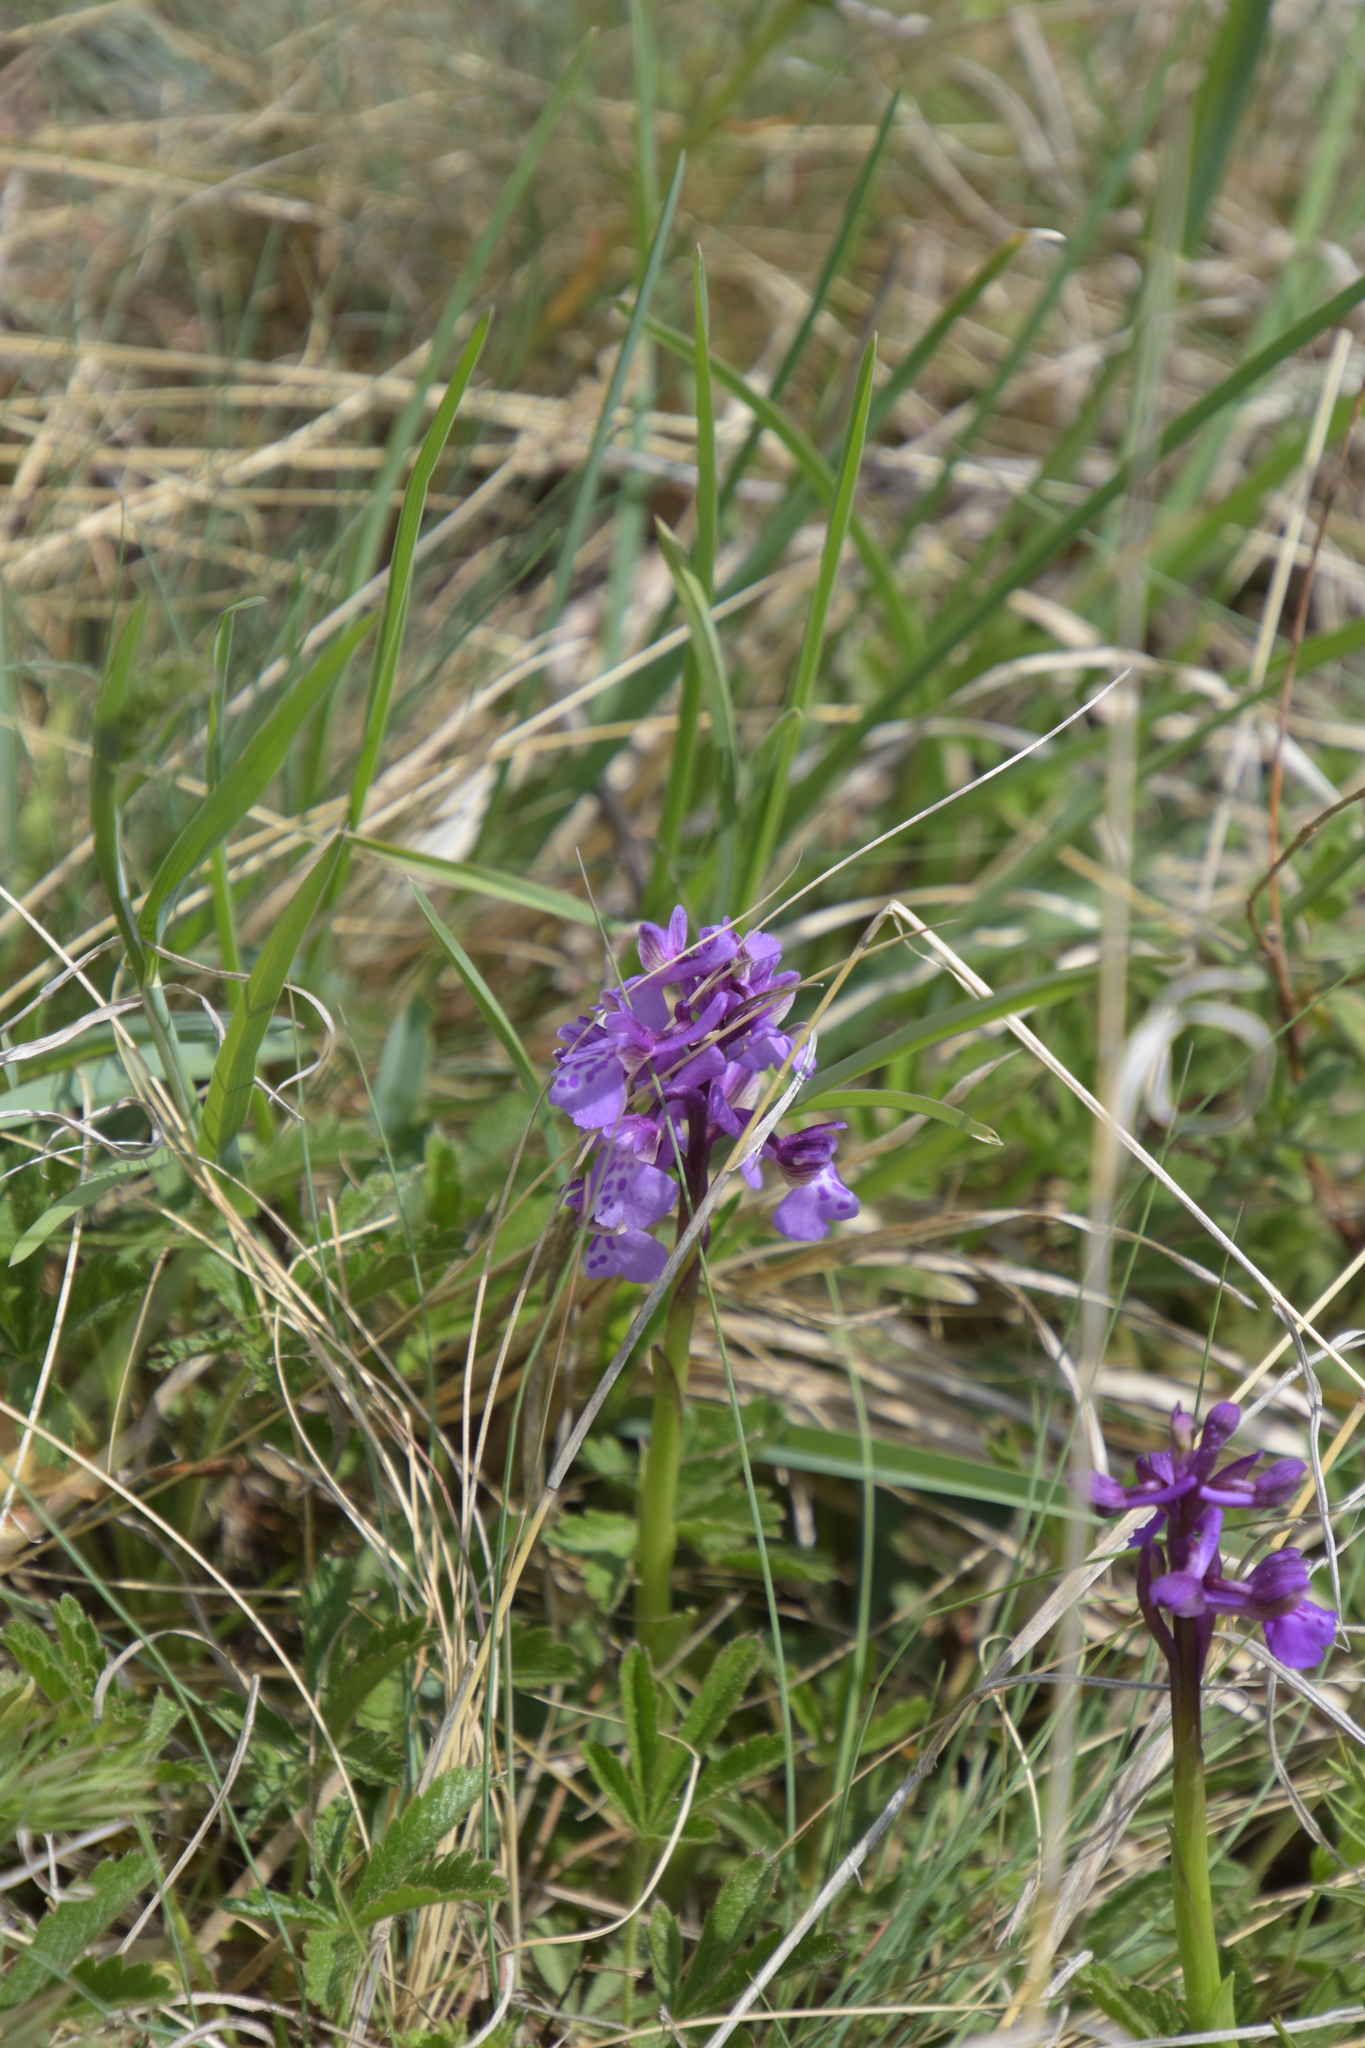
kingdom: Plantae
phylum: Tracheophyta
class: Liliopsida
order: Asparagales
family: Orchidaceae
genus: Anacamptis
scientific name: Anacamptis morio
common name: Green-winged orchid
